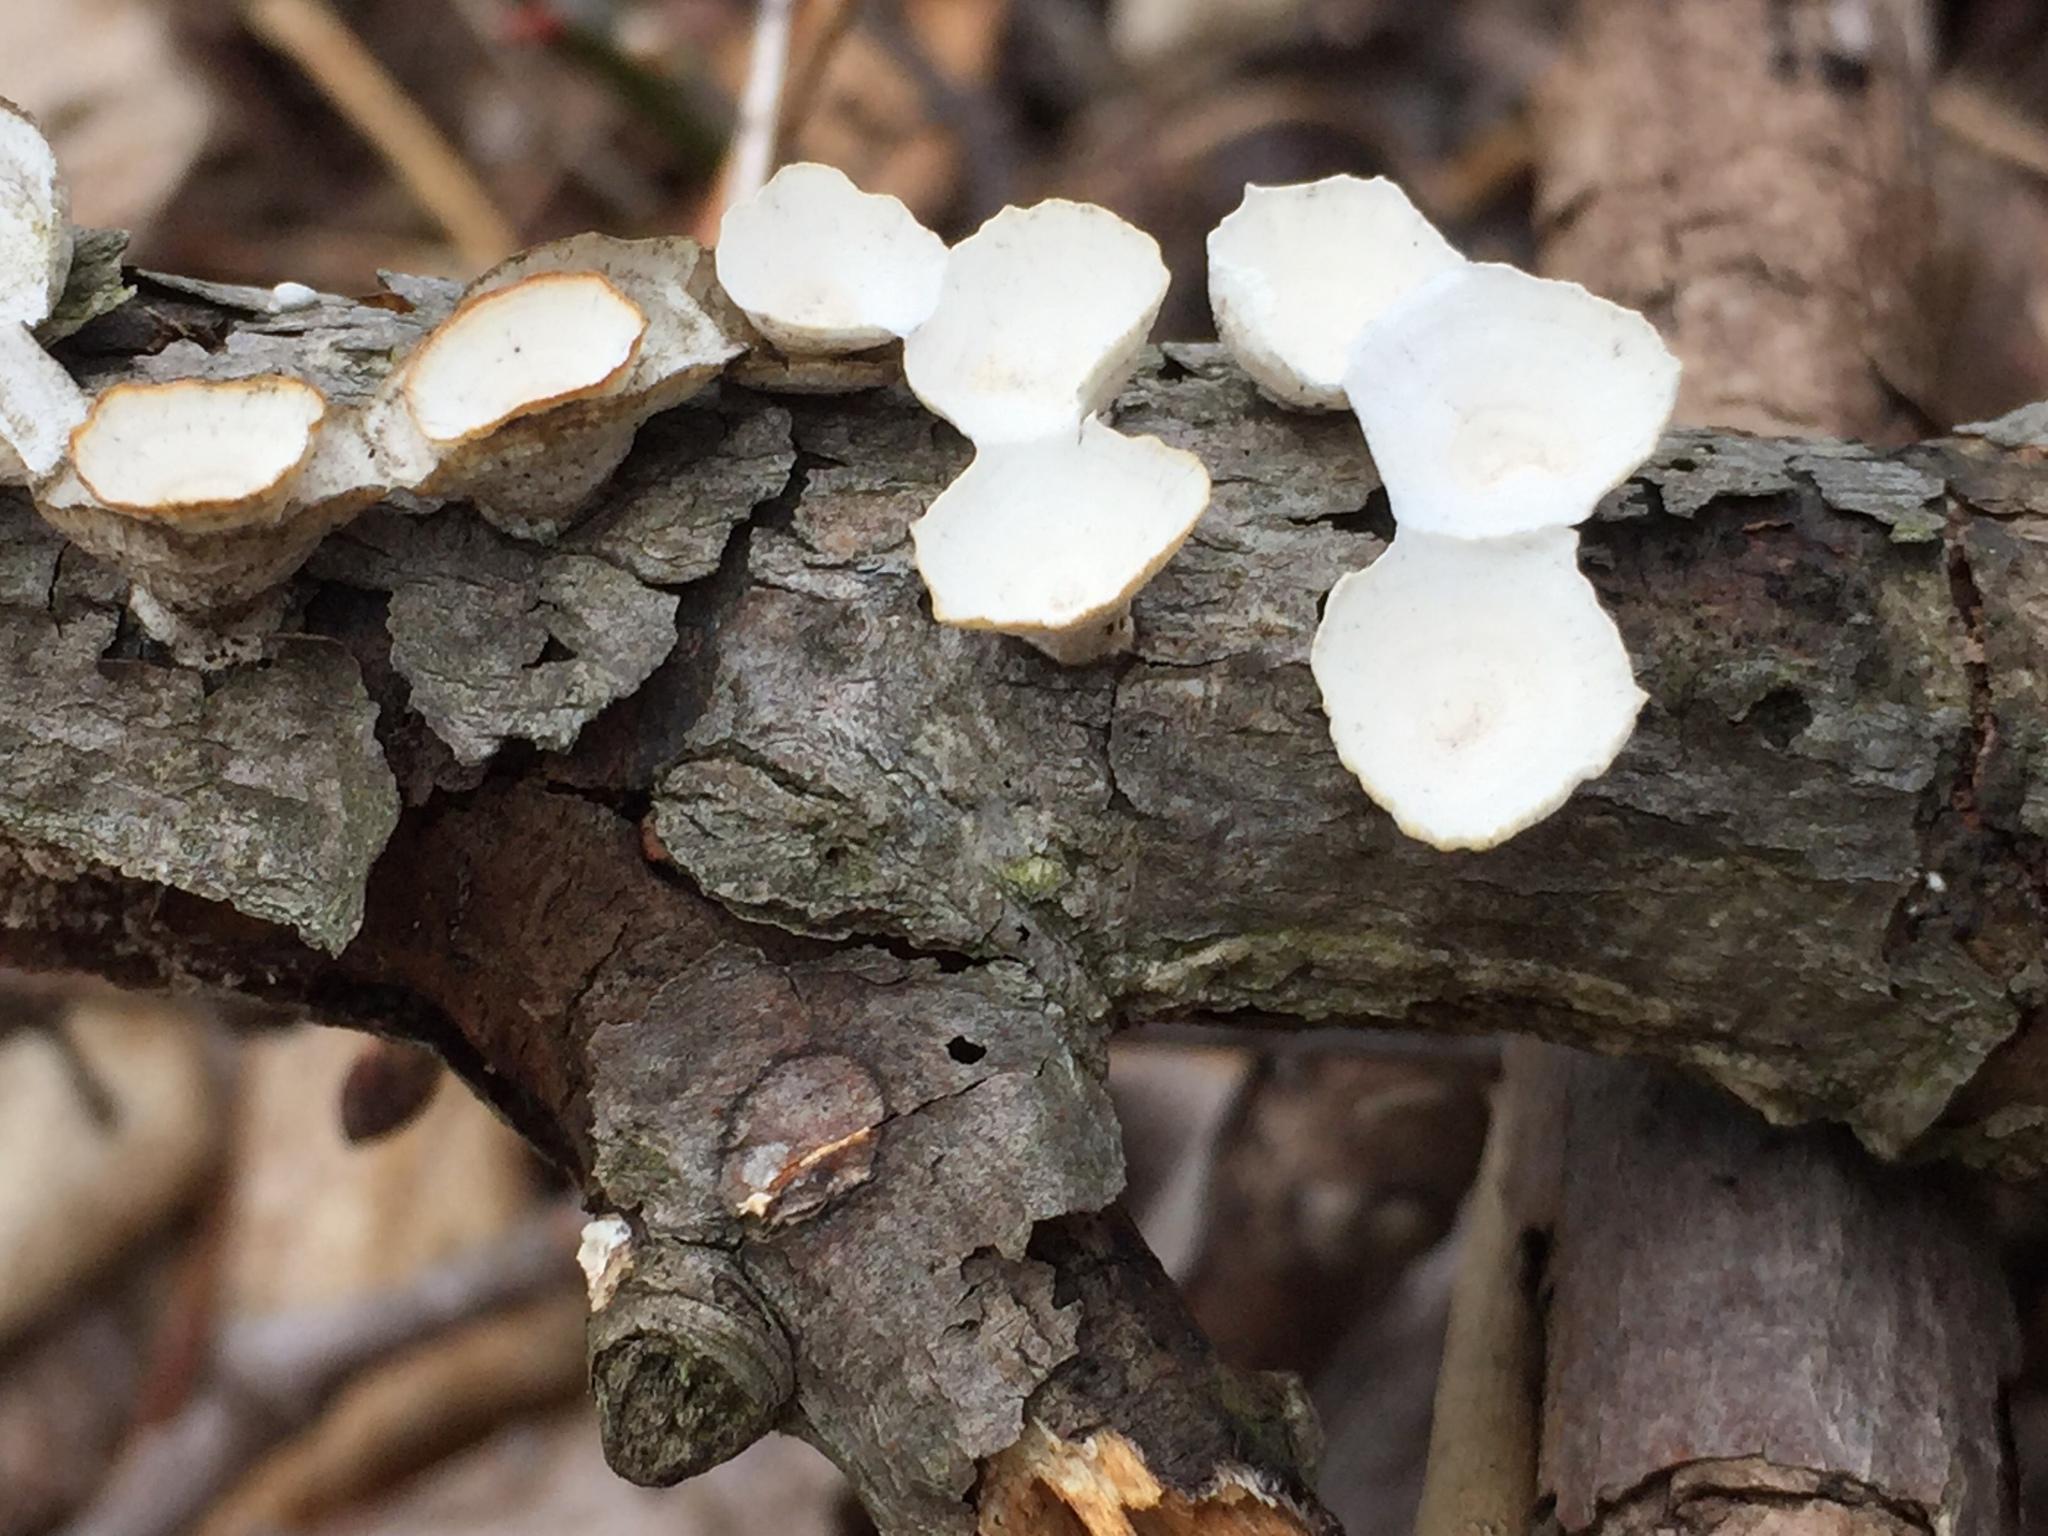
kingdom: Fungi
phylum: Basidiomycota
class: Agaricomycetes
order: Polyporales
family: Polyporaceae
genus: Poronidulus
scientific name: Poronidulus conchifer
